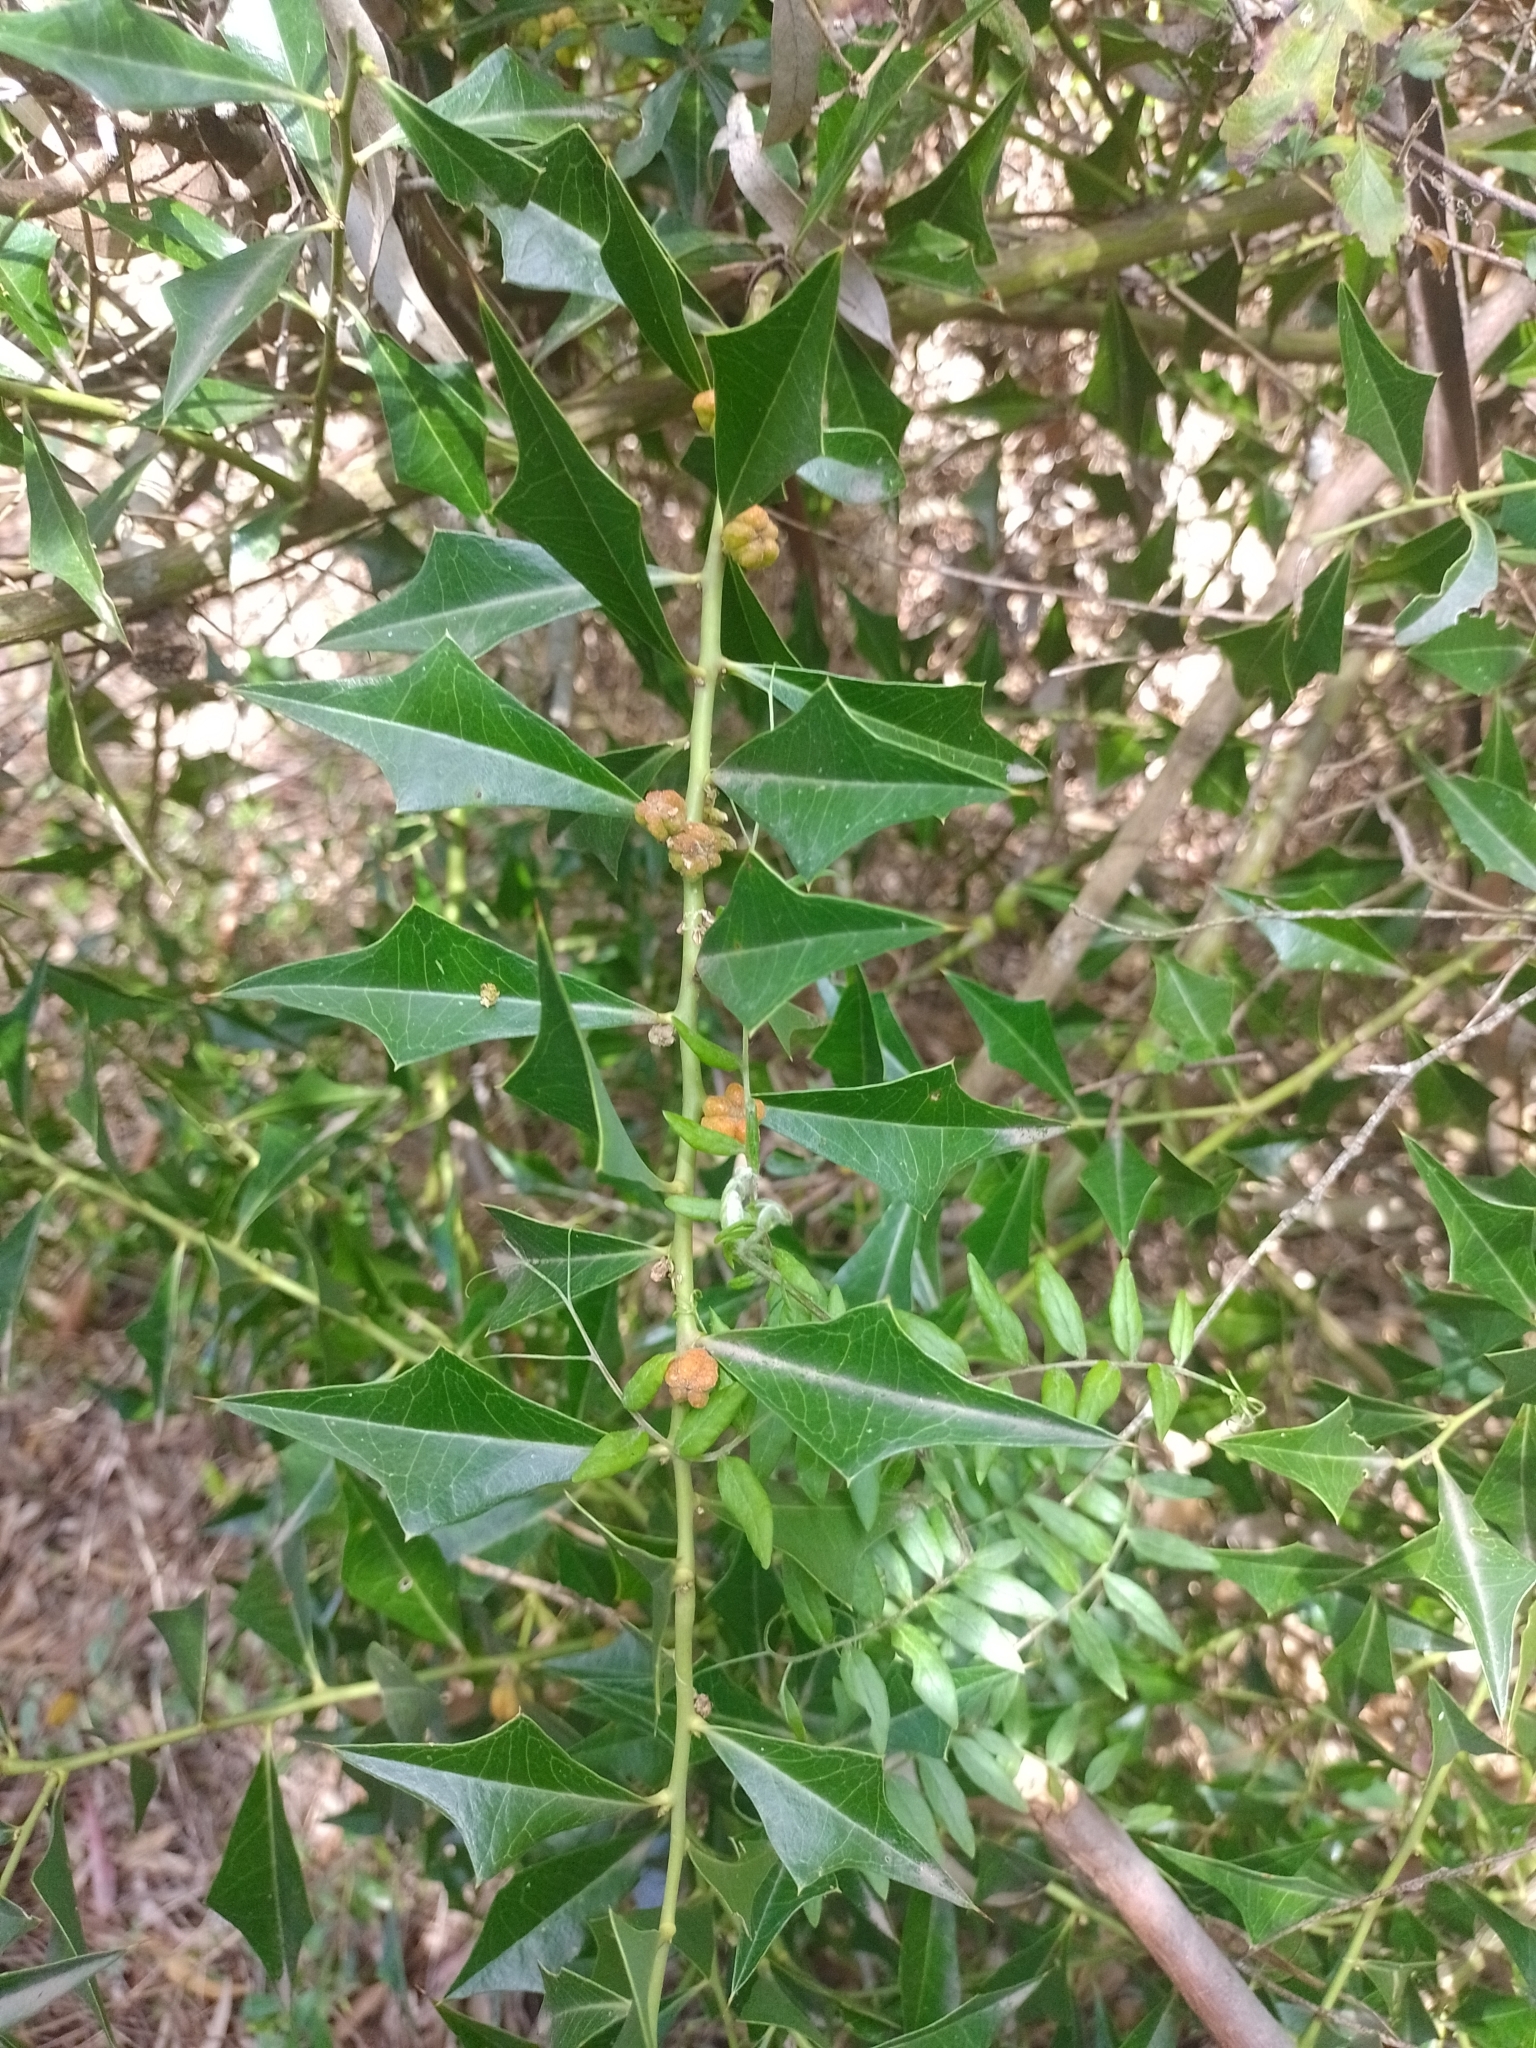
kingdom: Plantae
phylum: Tracheophyta
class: Magnoliopsida
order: Santalales
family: Cervantesiaceae
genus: Jodina
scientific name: Jodina rhombifolia
